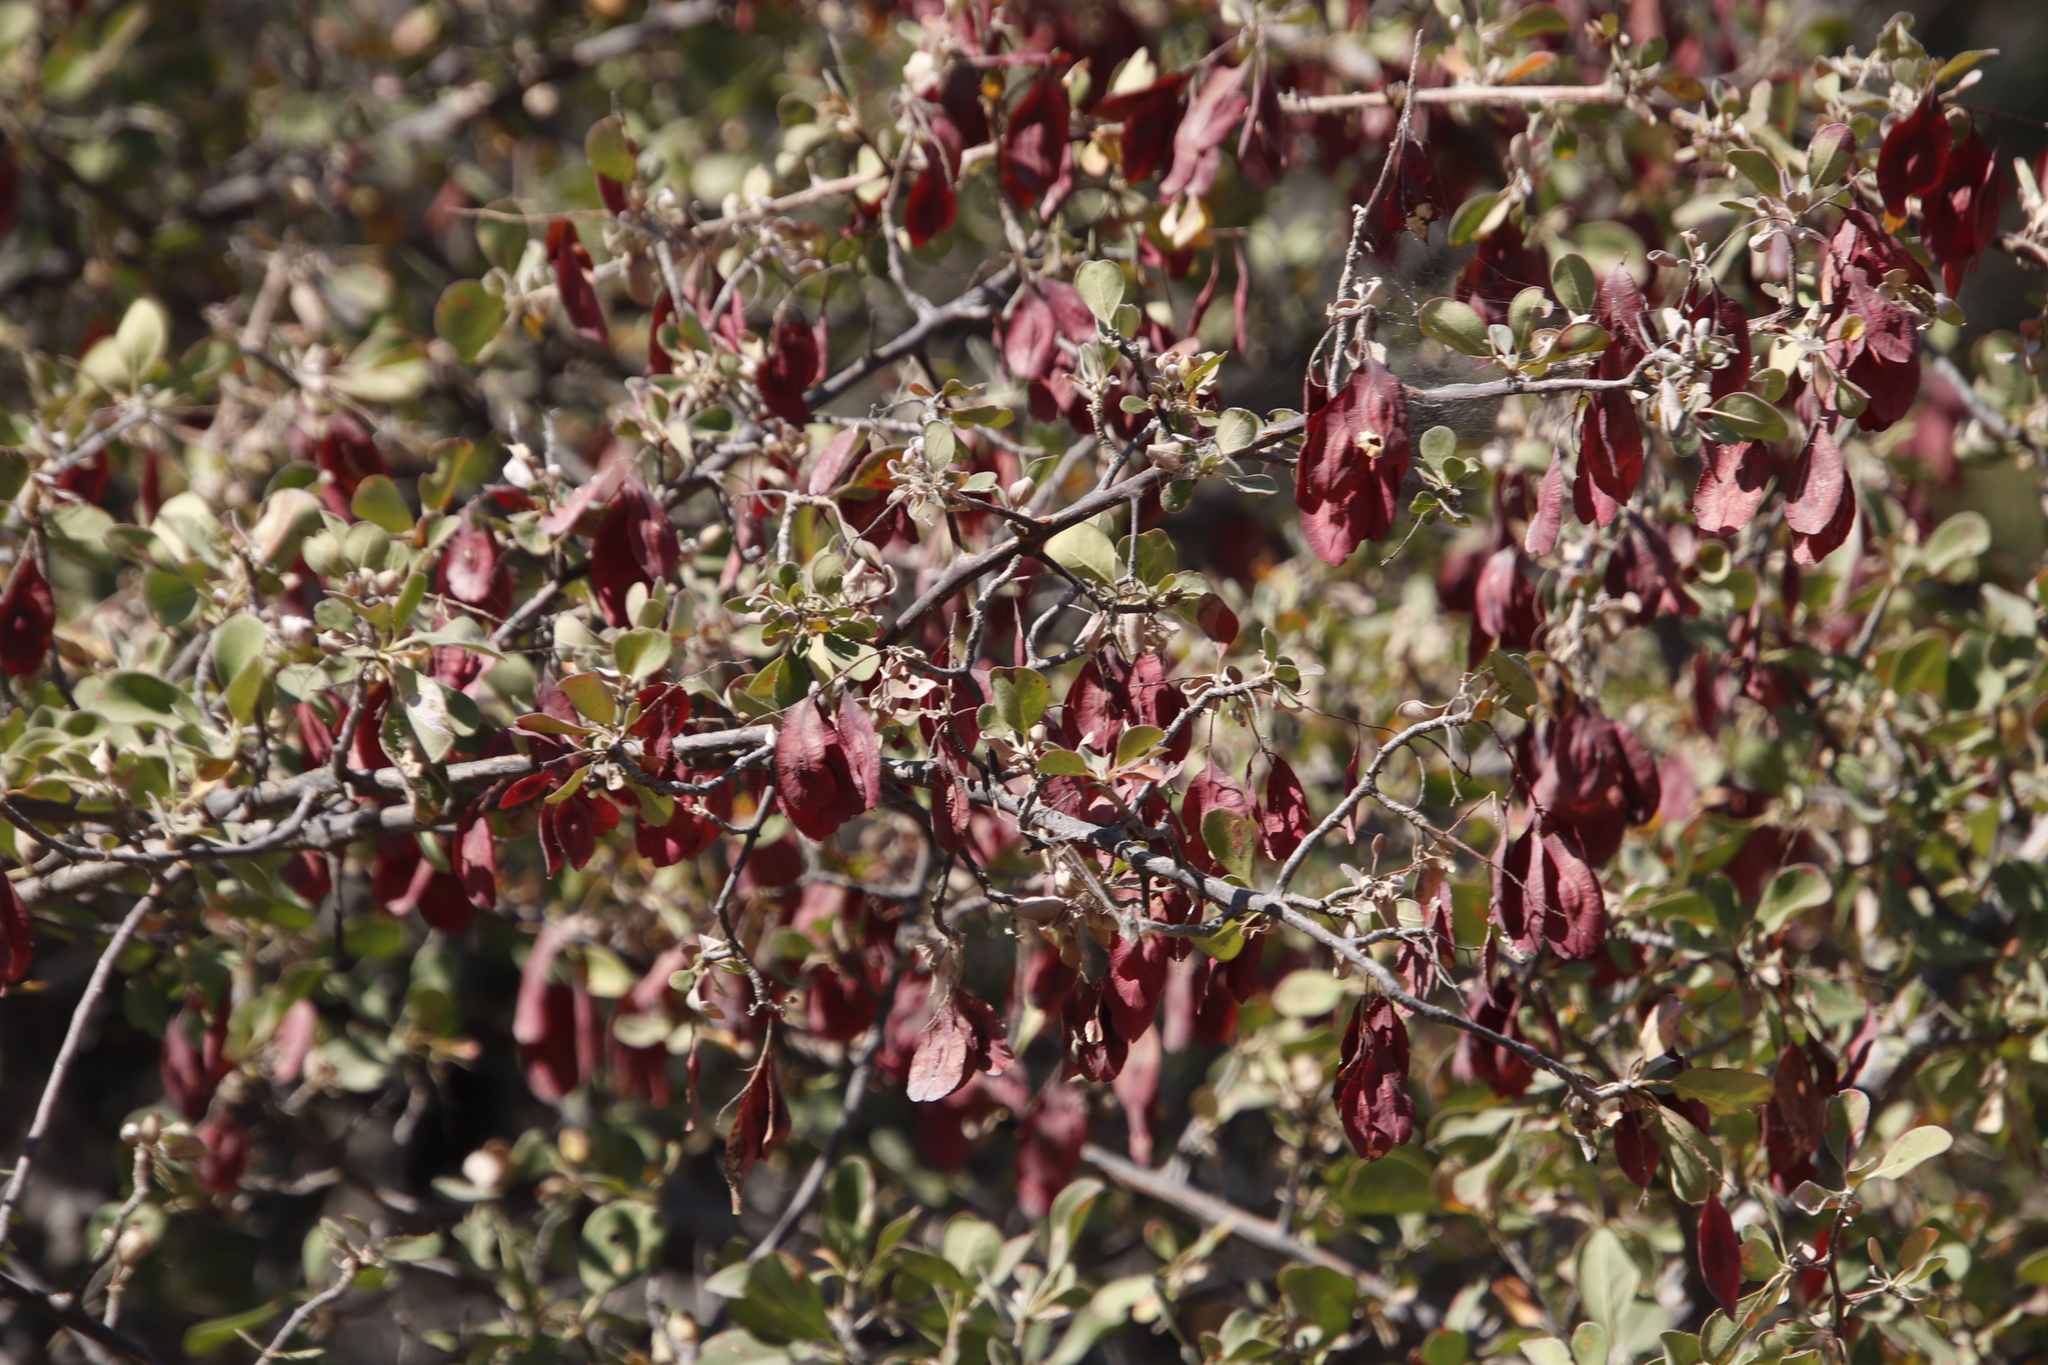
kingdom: Plantae
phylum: Tracheophyta
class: Magnoliopsida
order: Myrtales
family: Combretaceae
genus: Terminalia
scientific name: Terminalia prunioides
